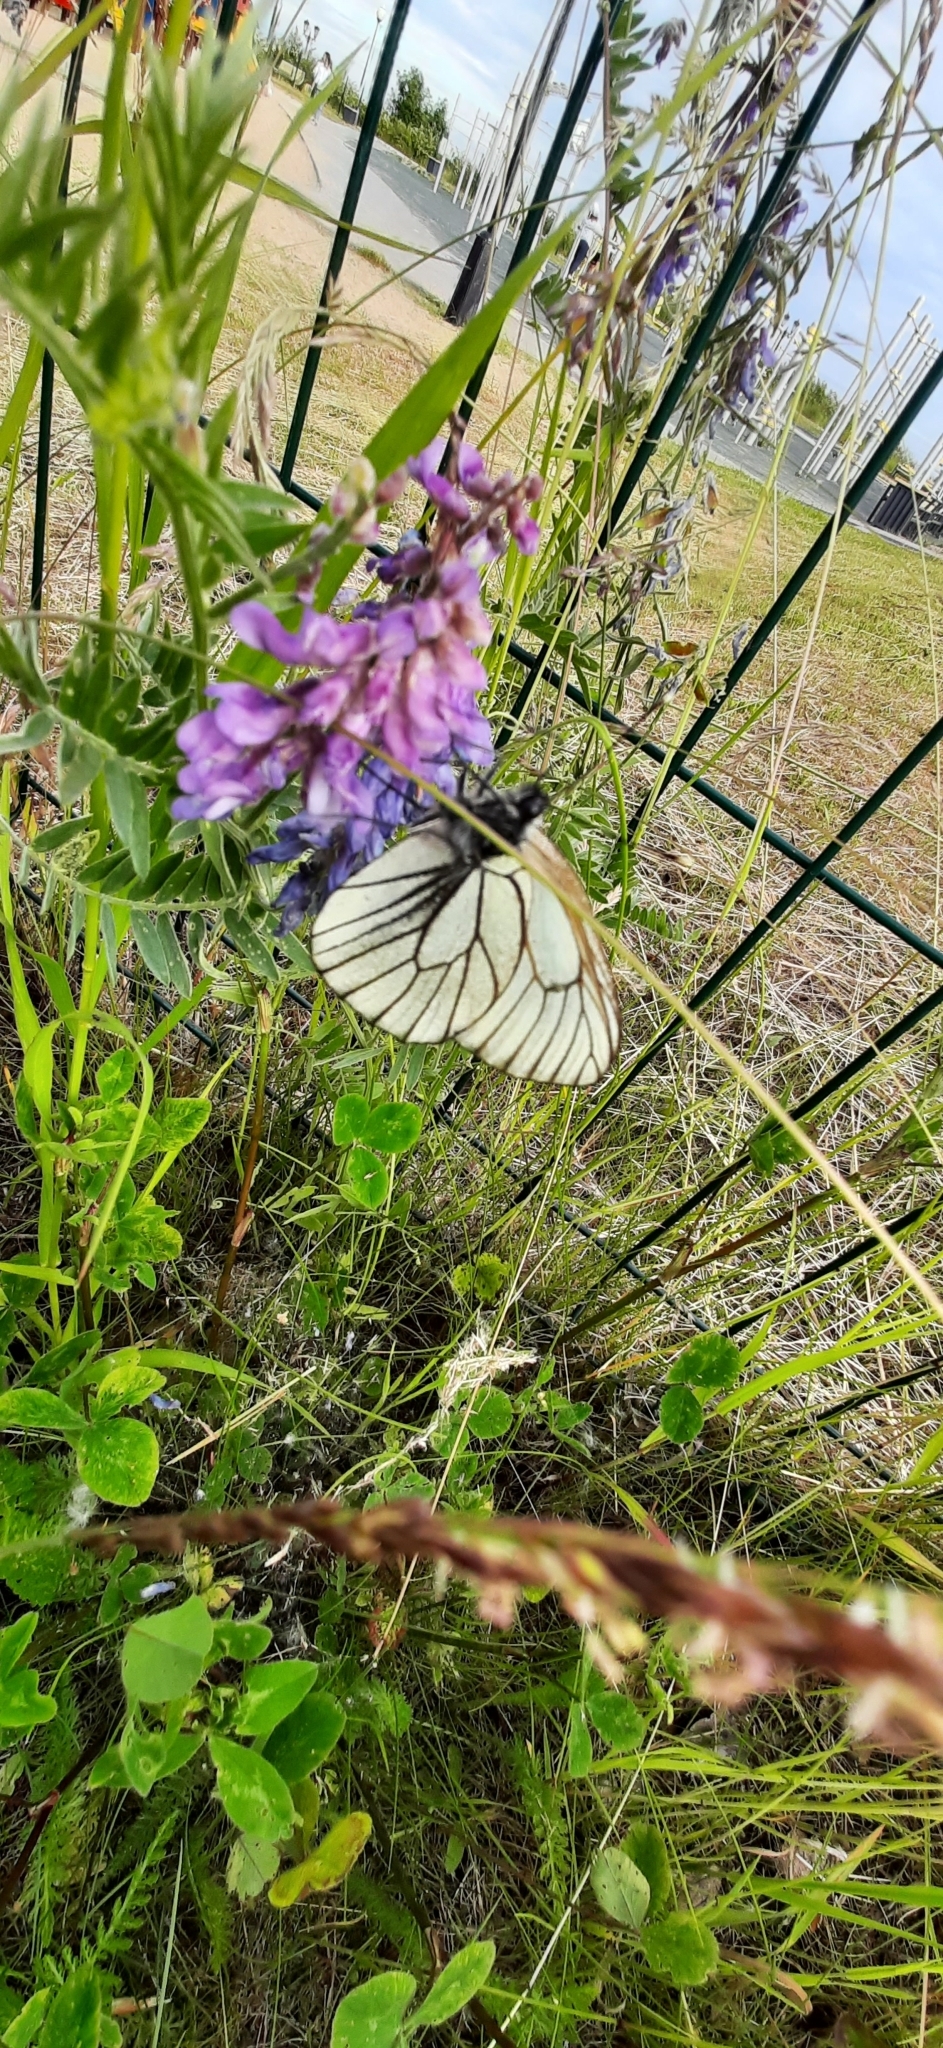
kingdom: Animalia
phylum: Arthropoda
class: Insecta
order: Lepidoptera
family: Pieridae
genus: Aporia
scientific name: Aporia crataegi
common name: Black-veined white
